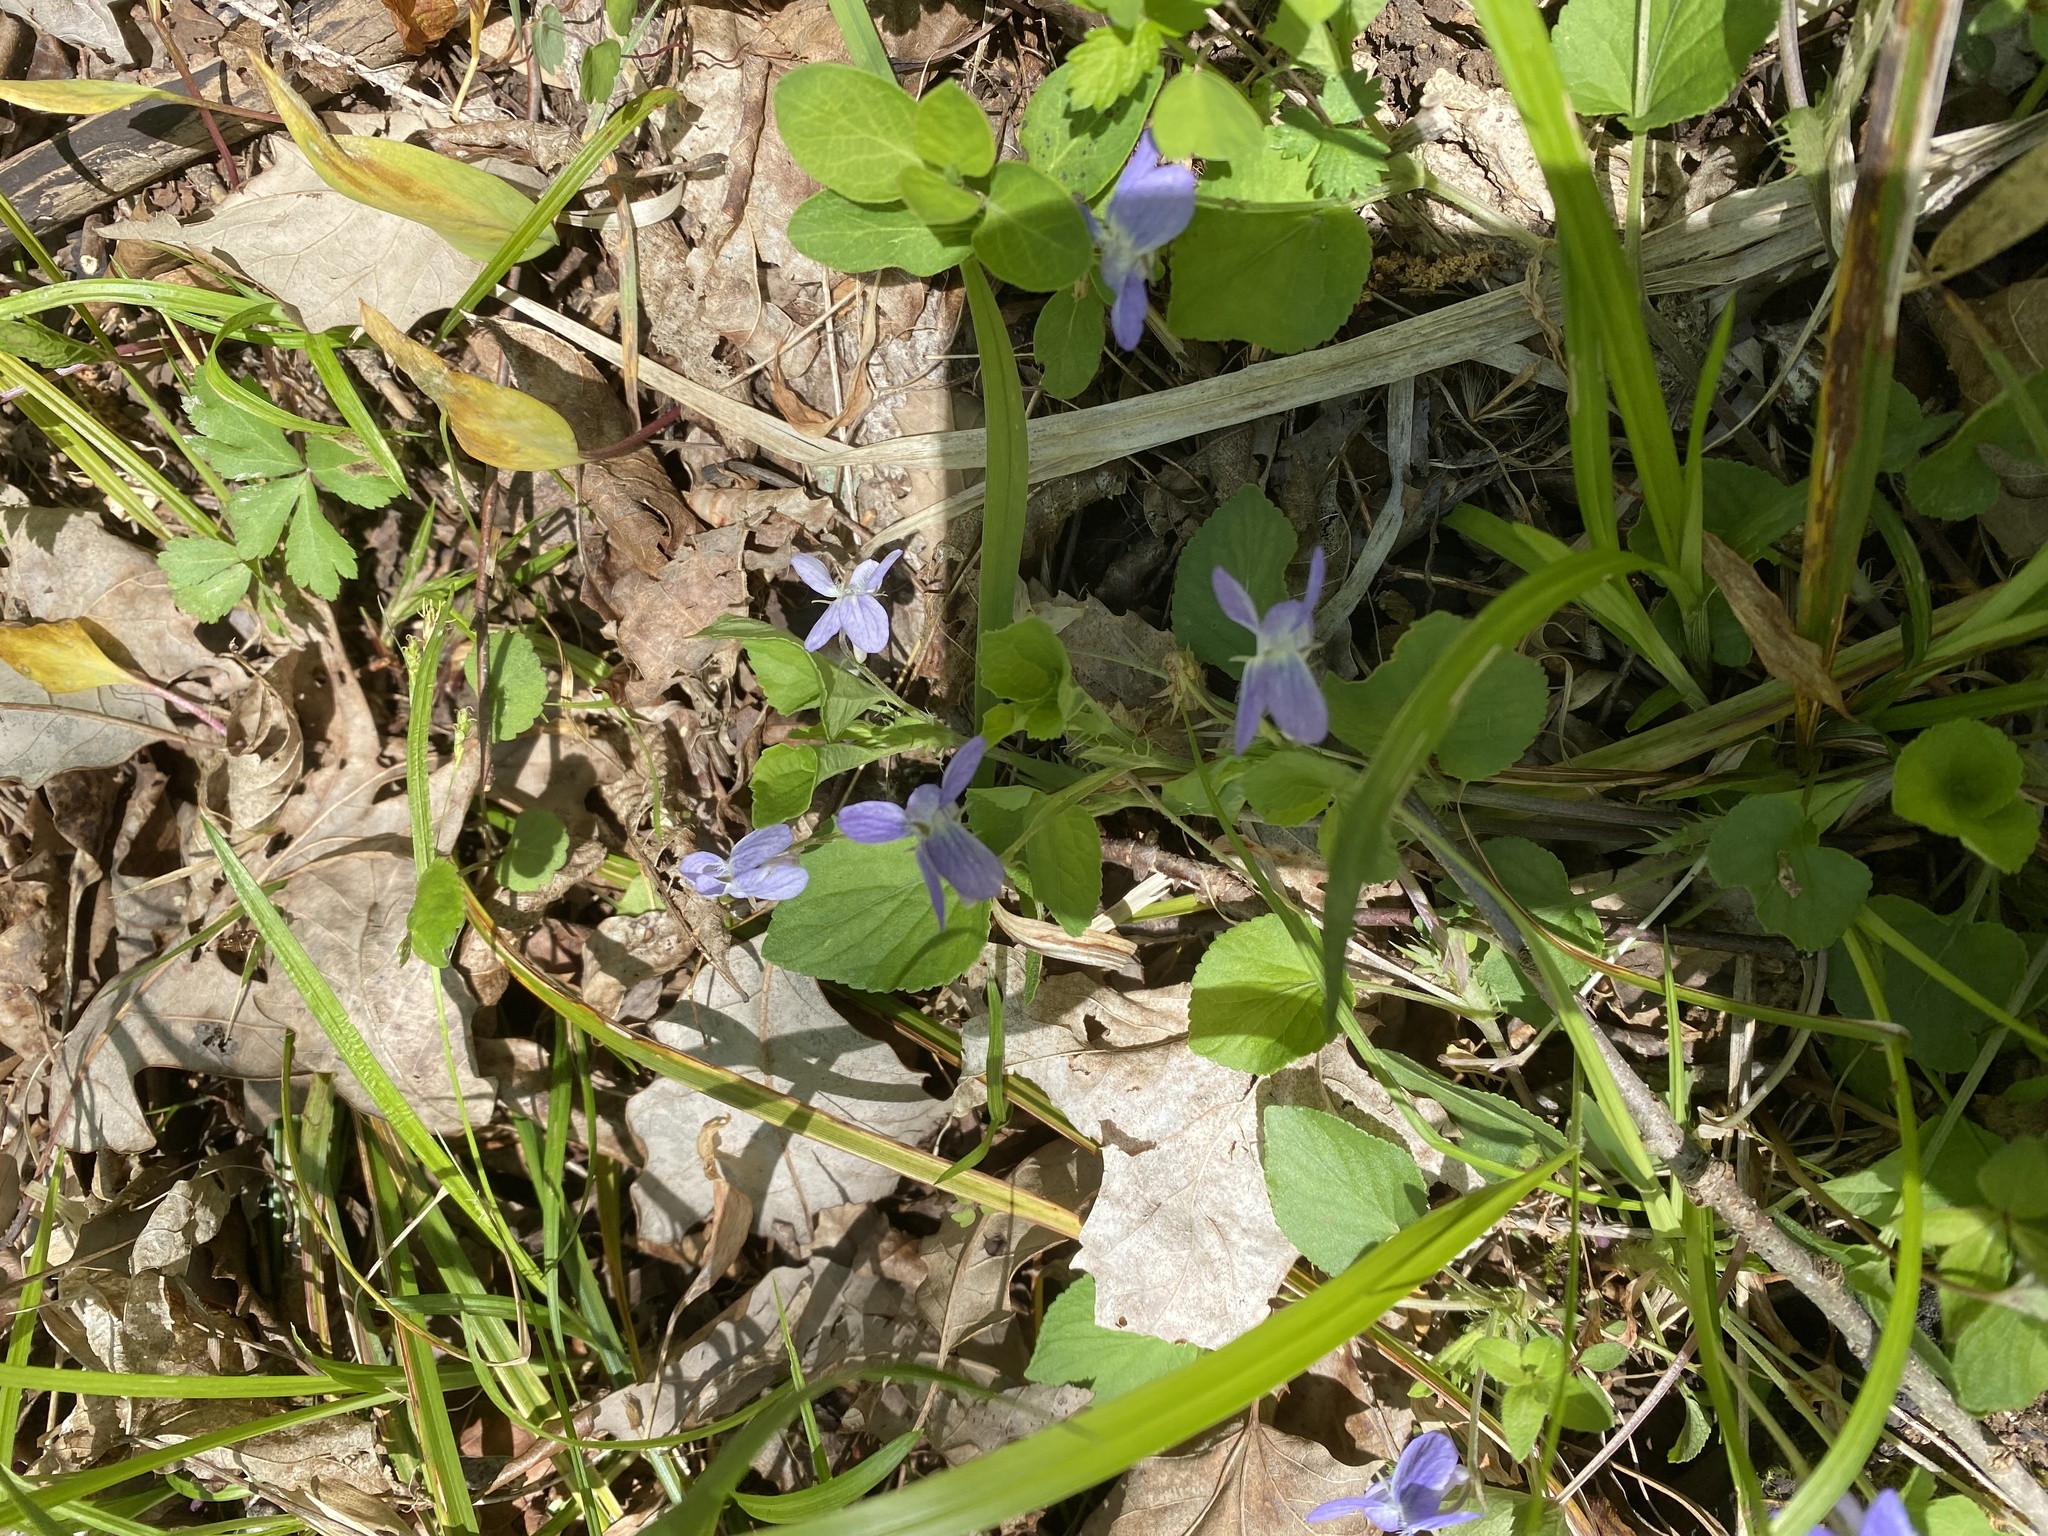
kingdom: Plantae
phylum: Tracheophyta
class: Magnoliopsida
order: Malpighiales
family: Violaceae
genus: Viola
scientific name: Viola labradorica
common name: Labrador violet
